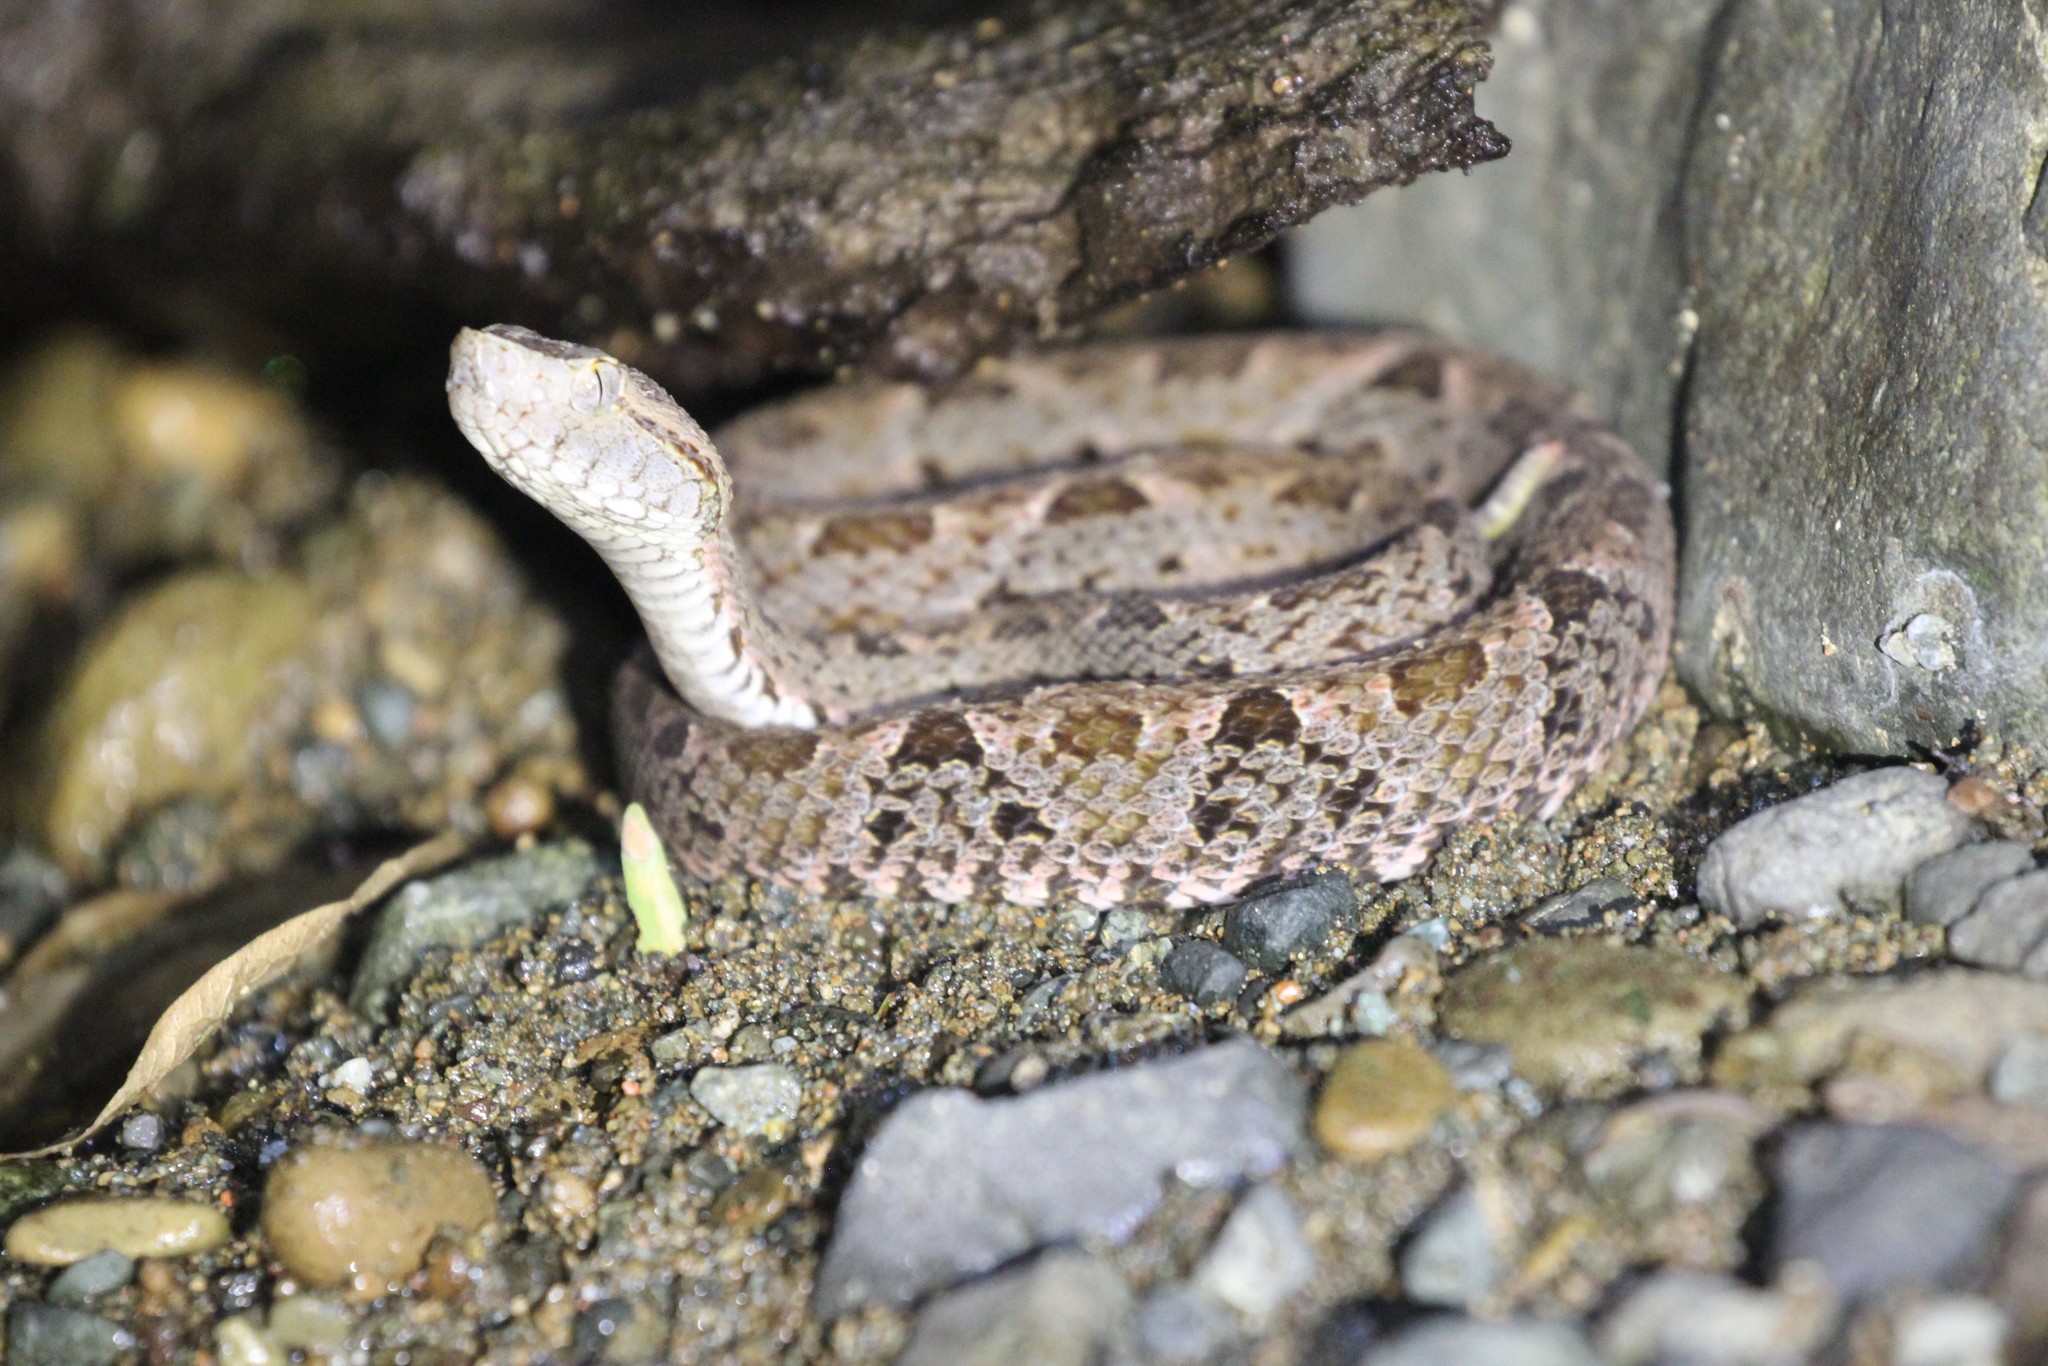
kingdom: Animalia
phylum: Chordata
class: Squamata
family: Viperidae
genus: Bothrops
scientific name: Bothrops asper
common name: Terciopelo
